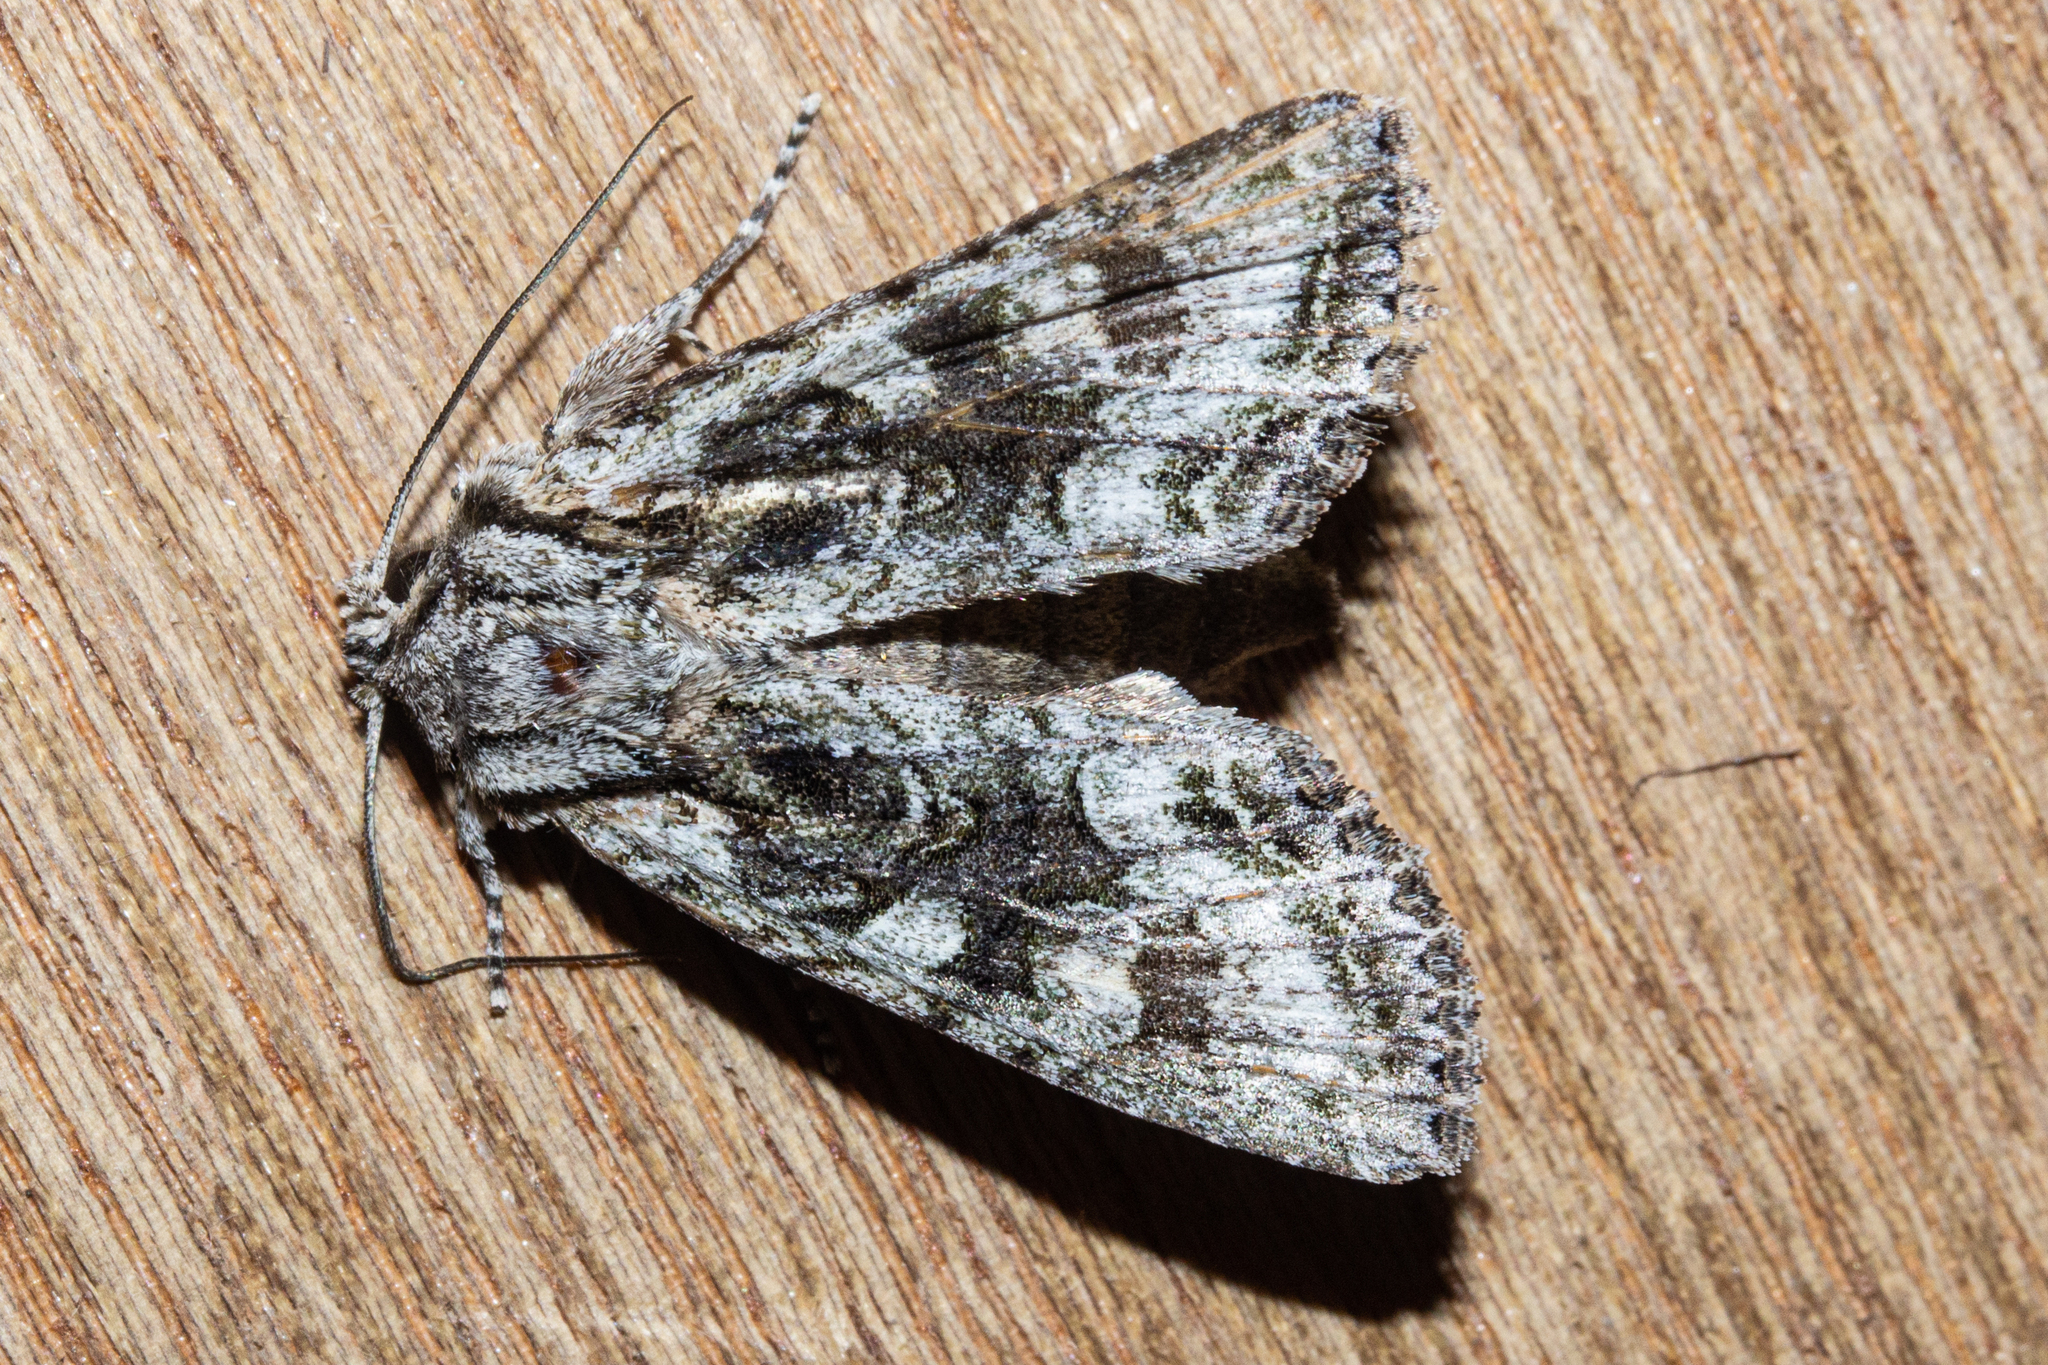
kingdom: Animalia
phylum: Arthropoda
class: Insecta
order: Lepidoptera
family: Noctuidae
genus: Ichneutica
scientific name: Ichneutica mutans
